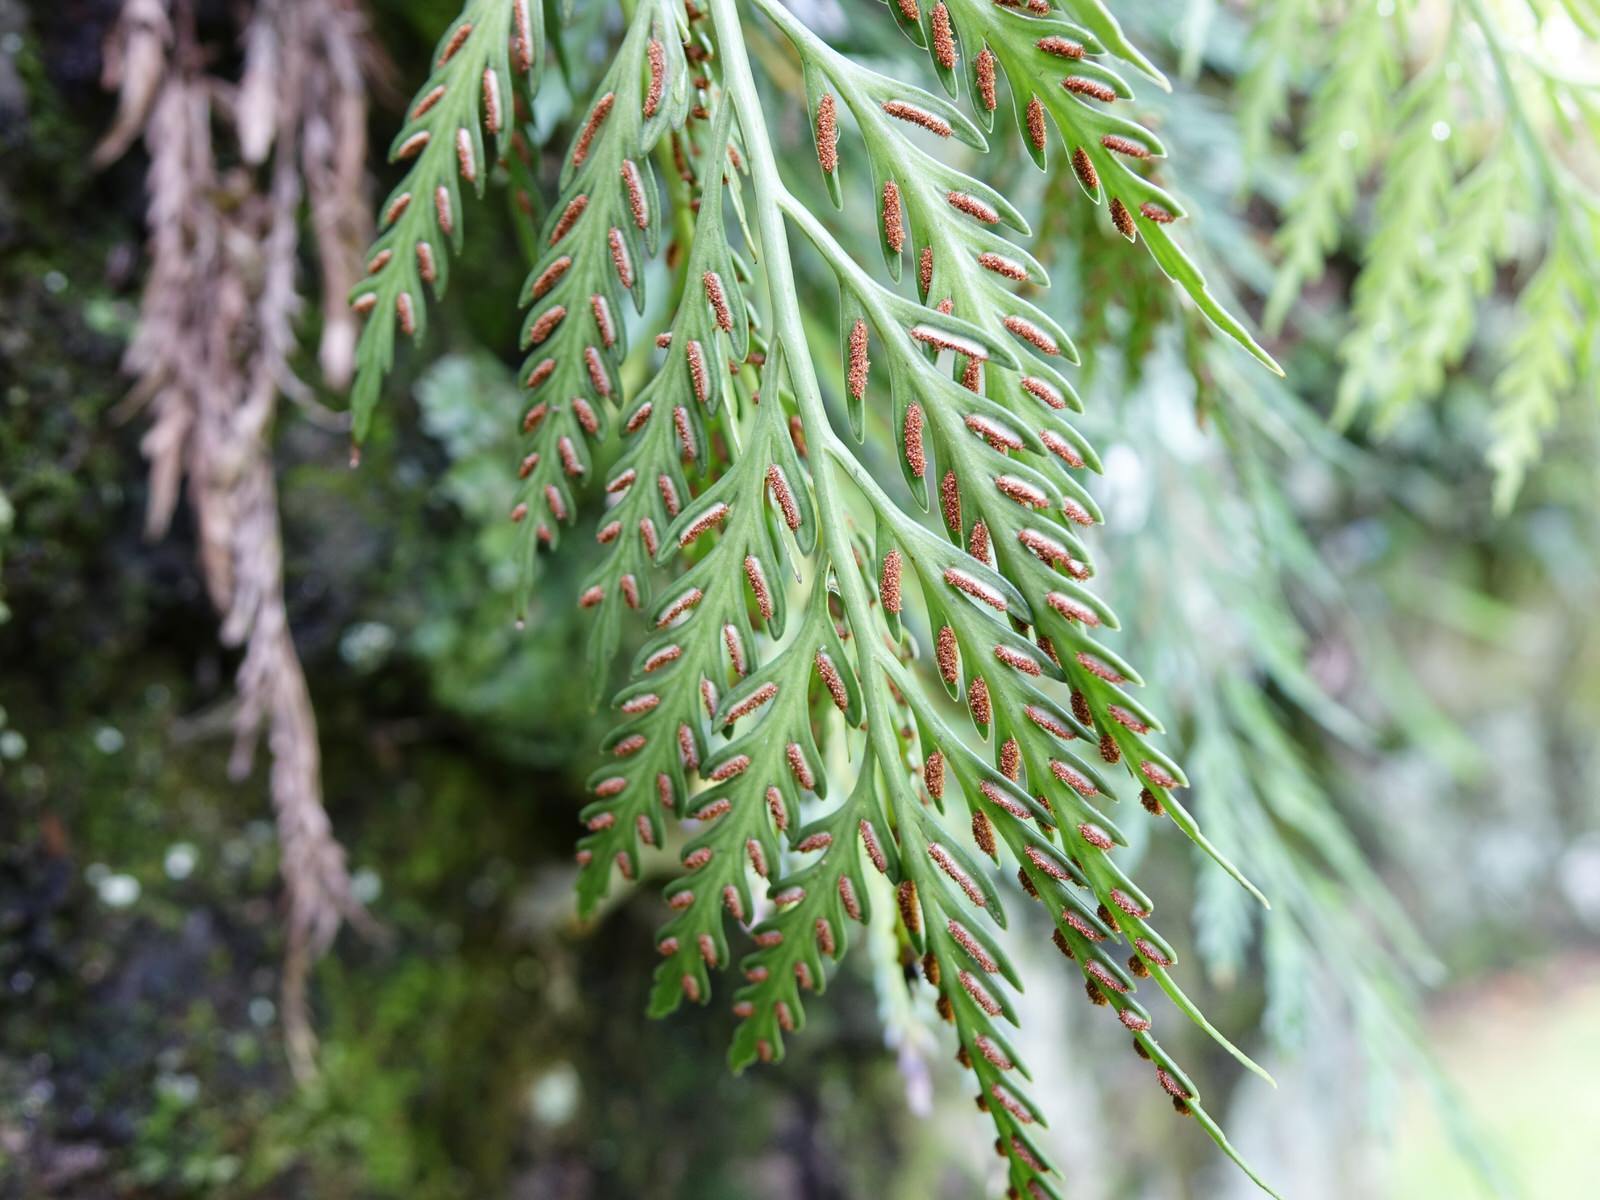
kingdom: Plantae
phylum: Tracheophyta
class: Polypodiopsida
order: Polypodiales
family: Aspleniaceae
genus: Asplenium
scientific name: Asplenium flaccidum
